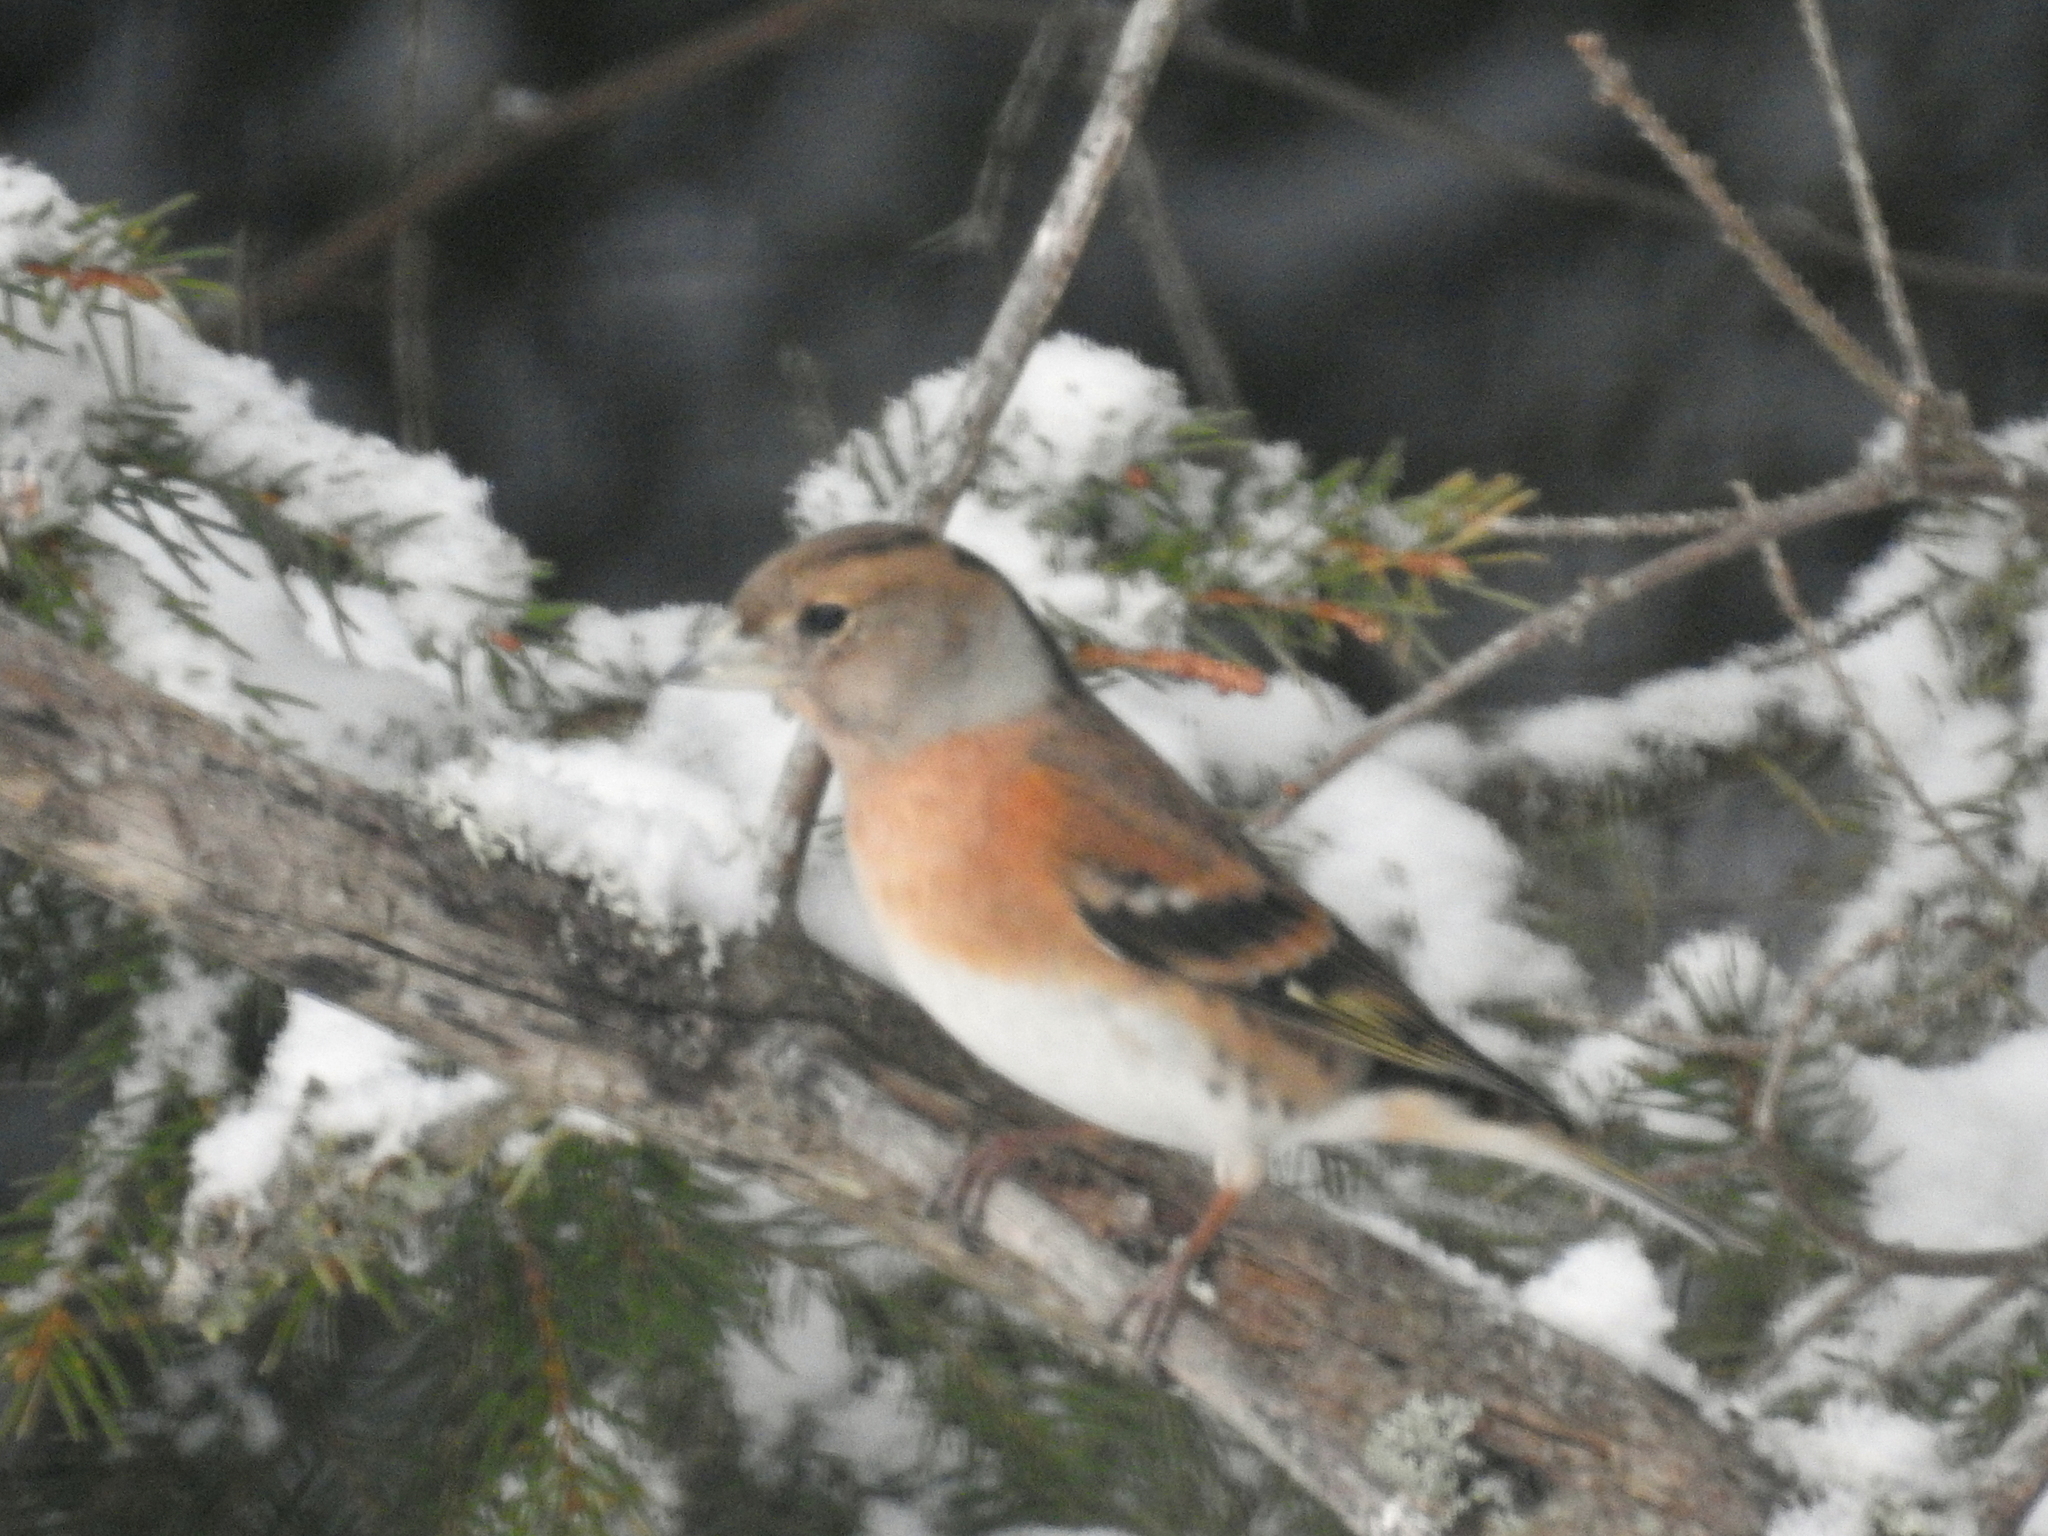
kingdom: Animalia
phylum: Chordata
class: Aves
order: Passeriformes
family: Fringillidae
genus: Fringilla
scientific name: Fringilla montifringilla
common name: Brambling
